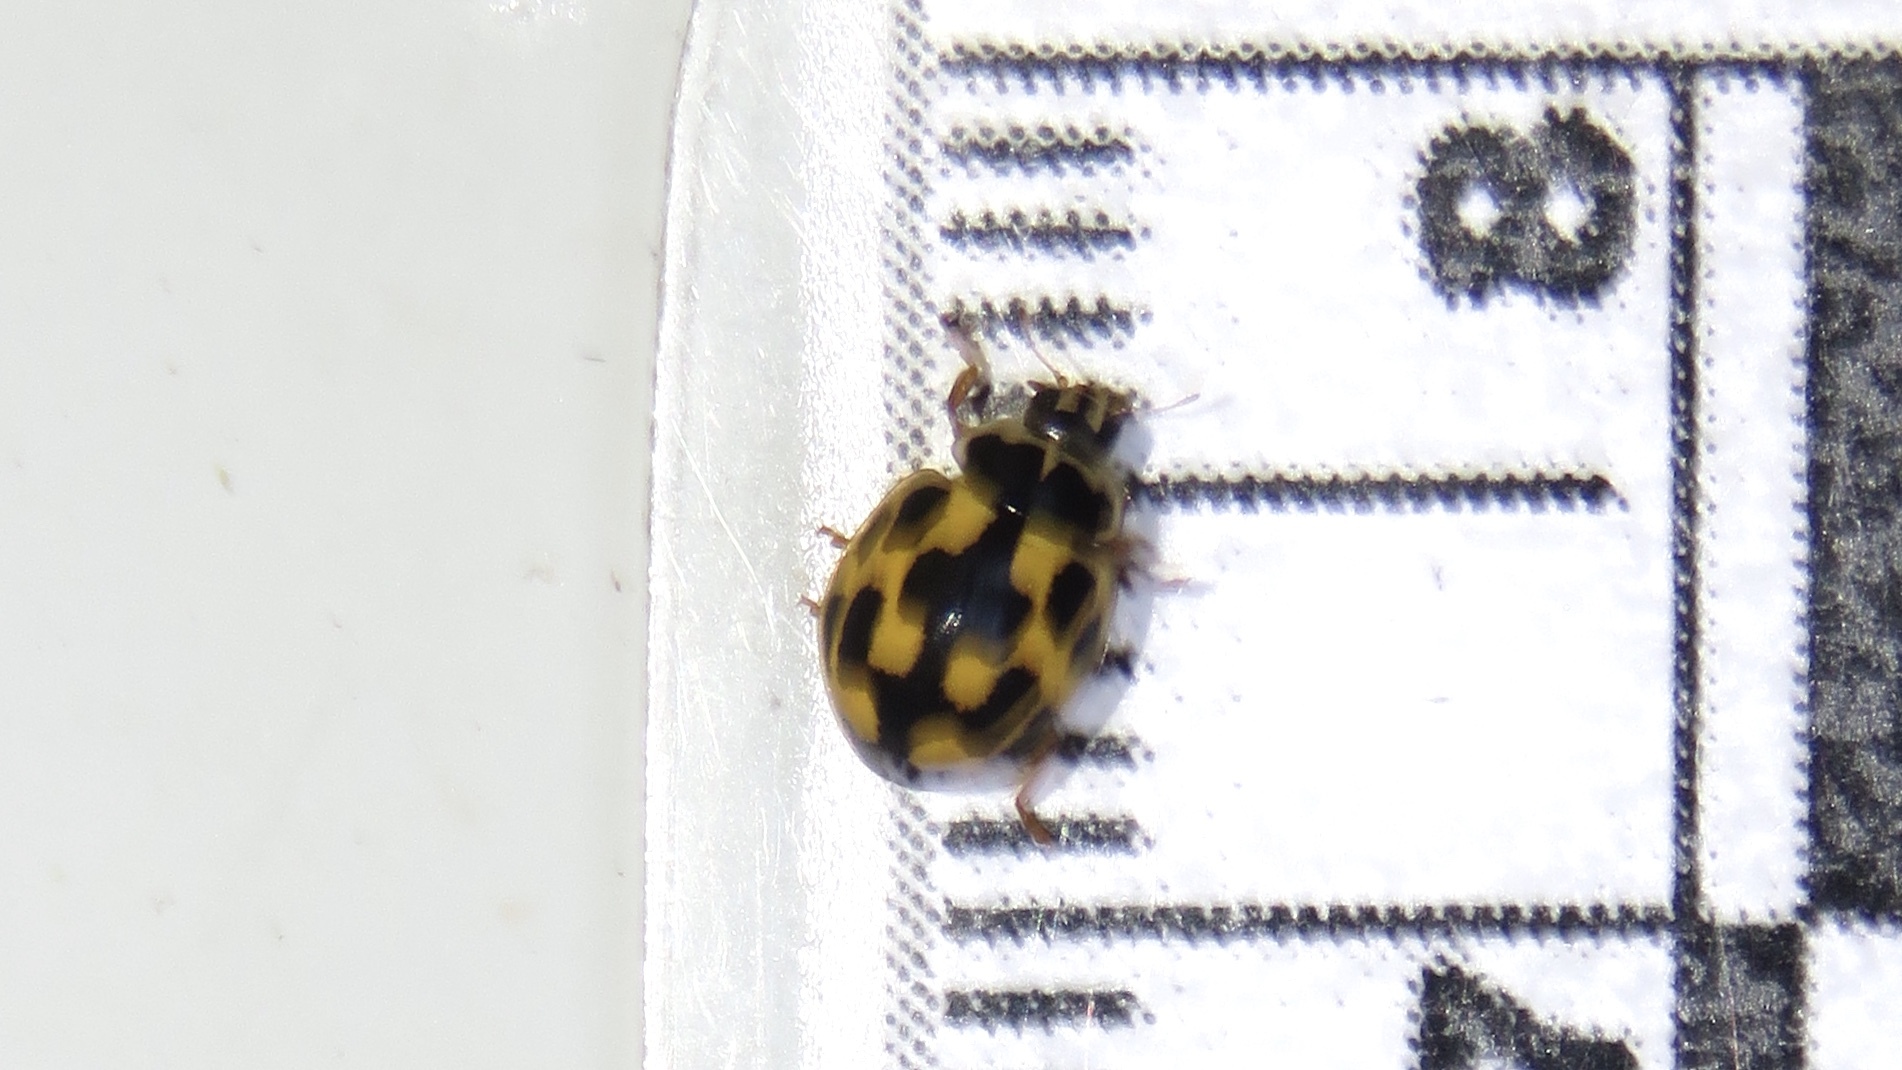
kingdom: Animalia
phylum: Arthropoda
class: Insecta
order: Coleoptera
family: Coccinellidae
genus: Propylaea
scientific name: Propylaea quatuordecimpunctata
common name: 14-spotted ladybird beetle
